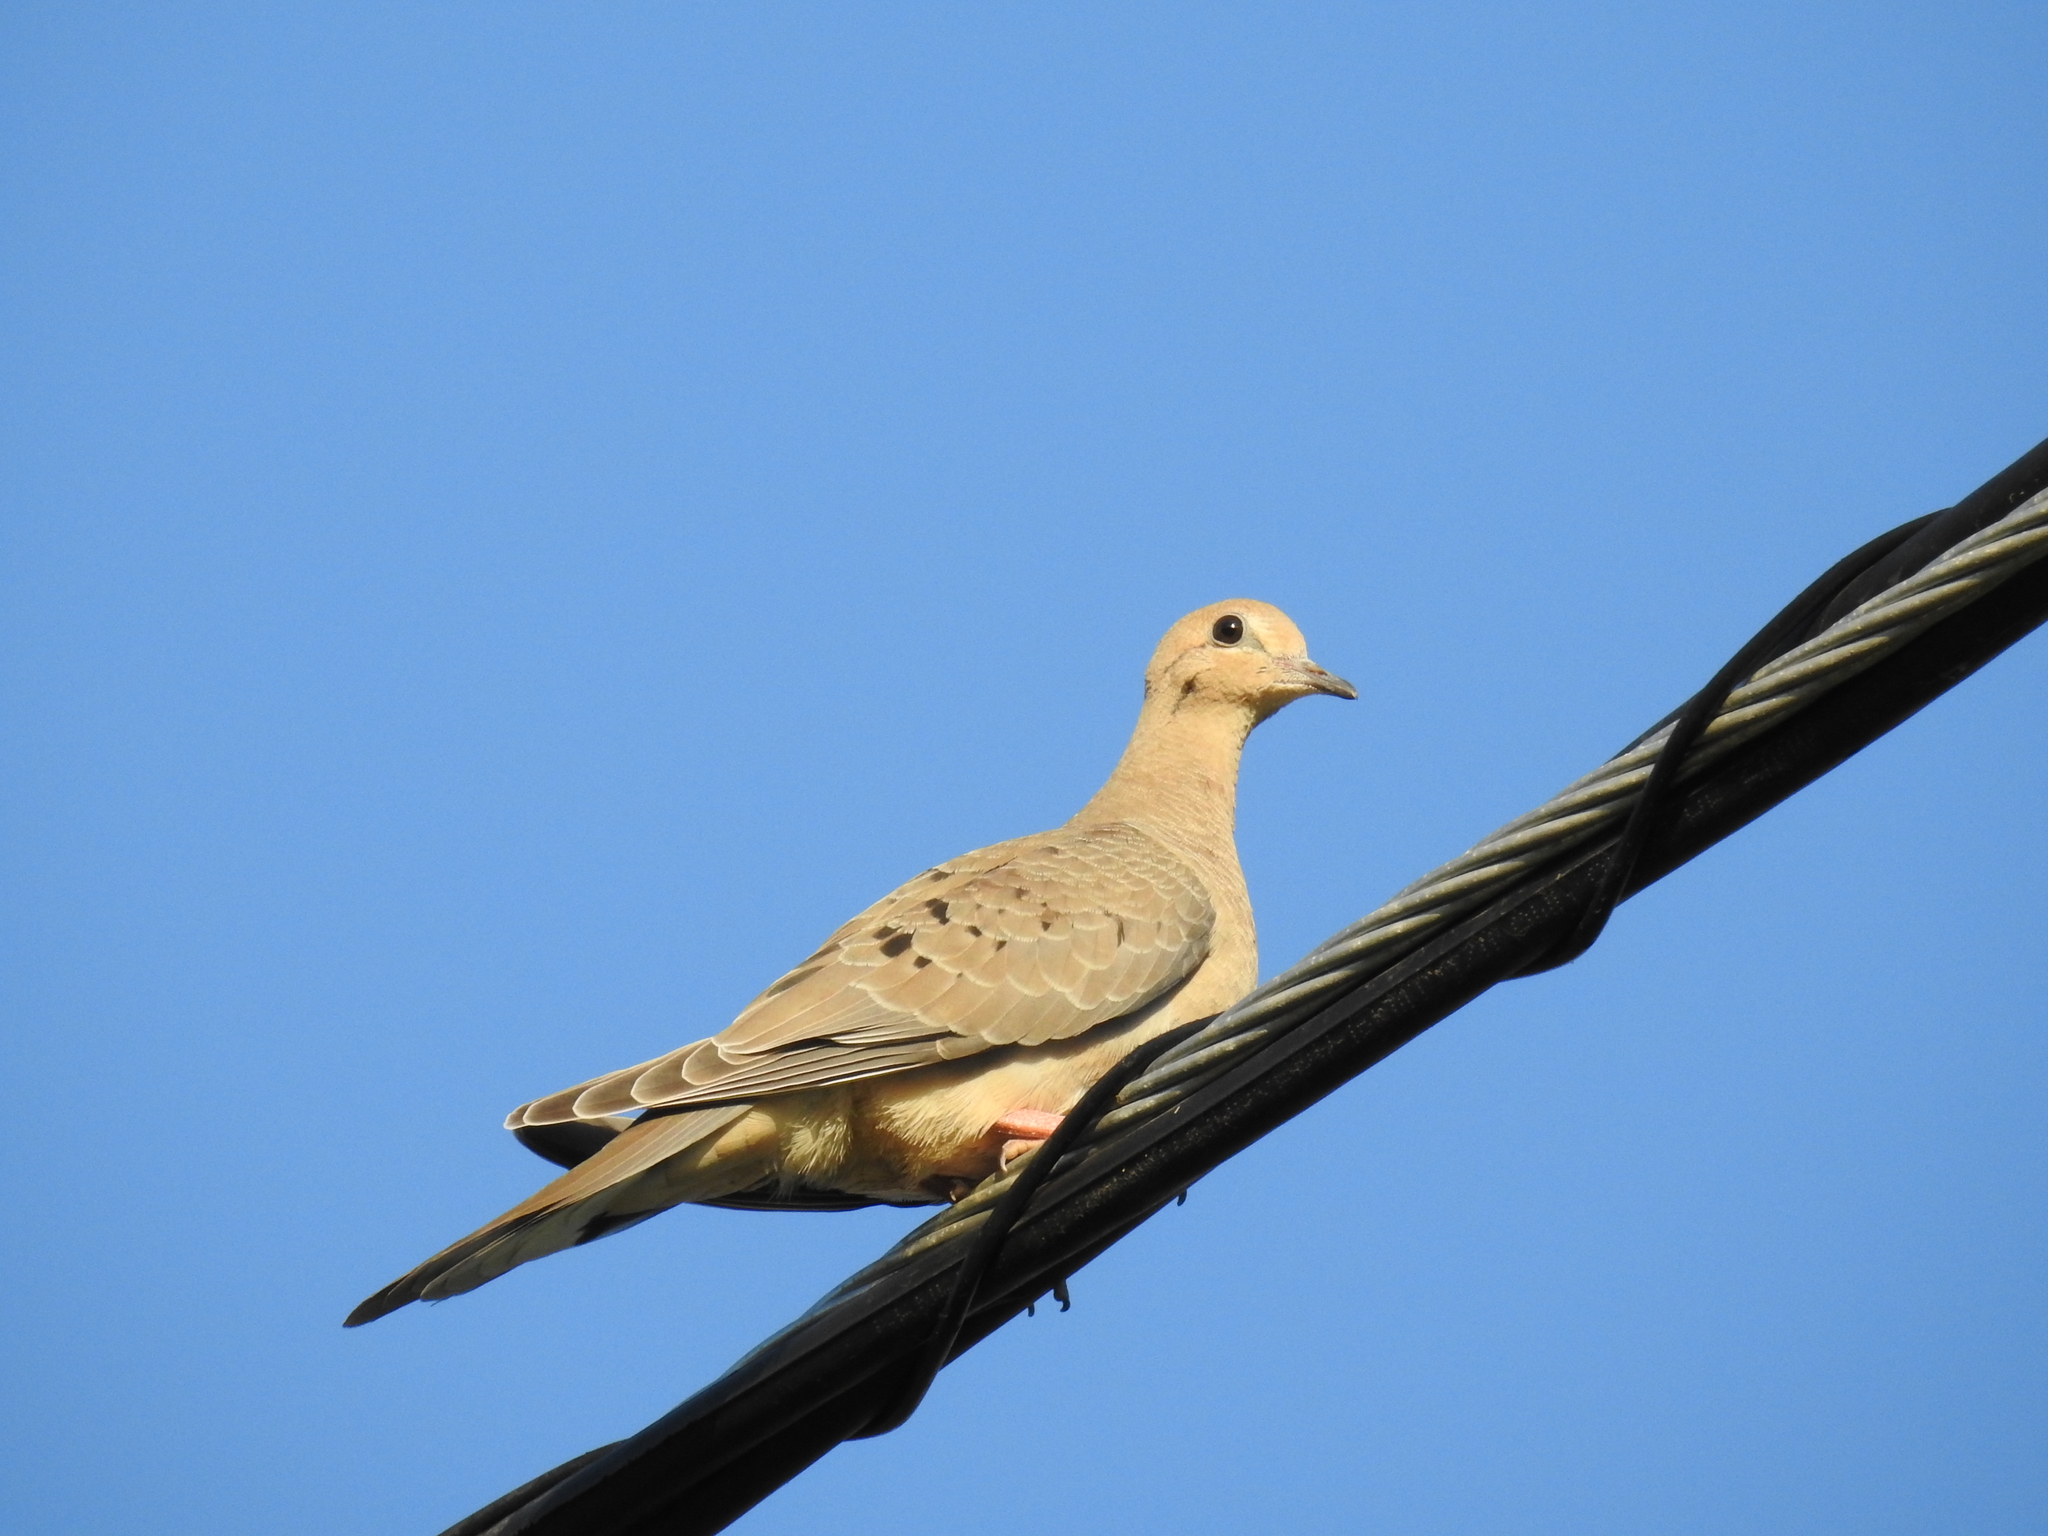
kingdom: Animalia
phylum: Chordata
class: Aves
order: Columbiformes
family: Columbidae
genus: Zenaida
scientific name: Zenaida macroura
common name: Mourning dove
